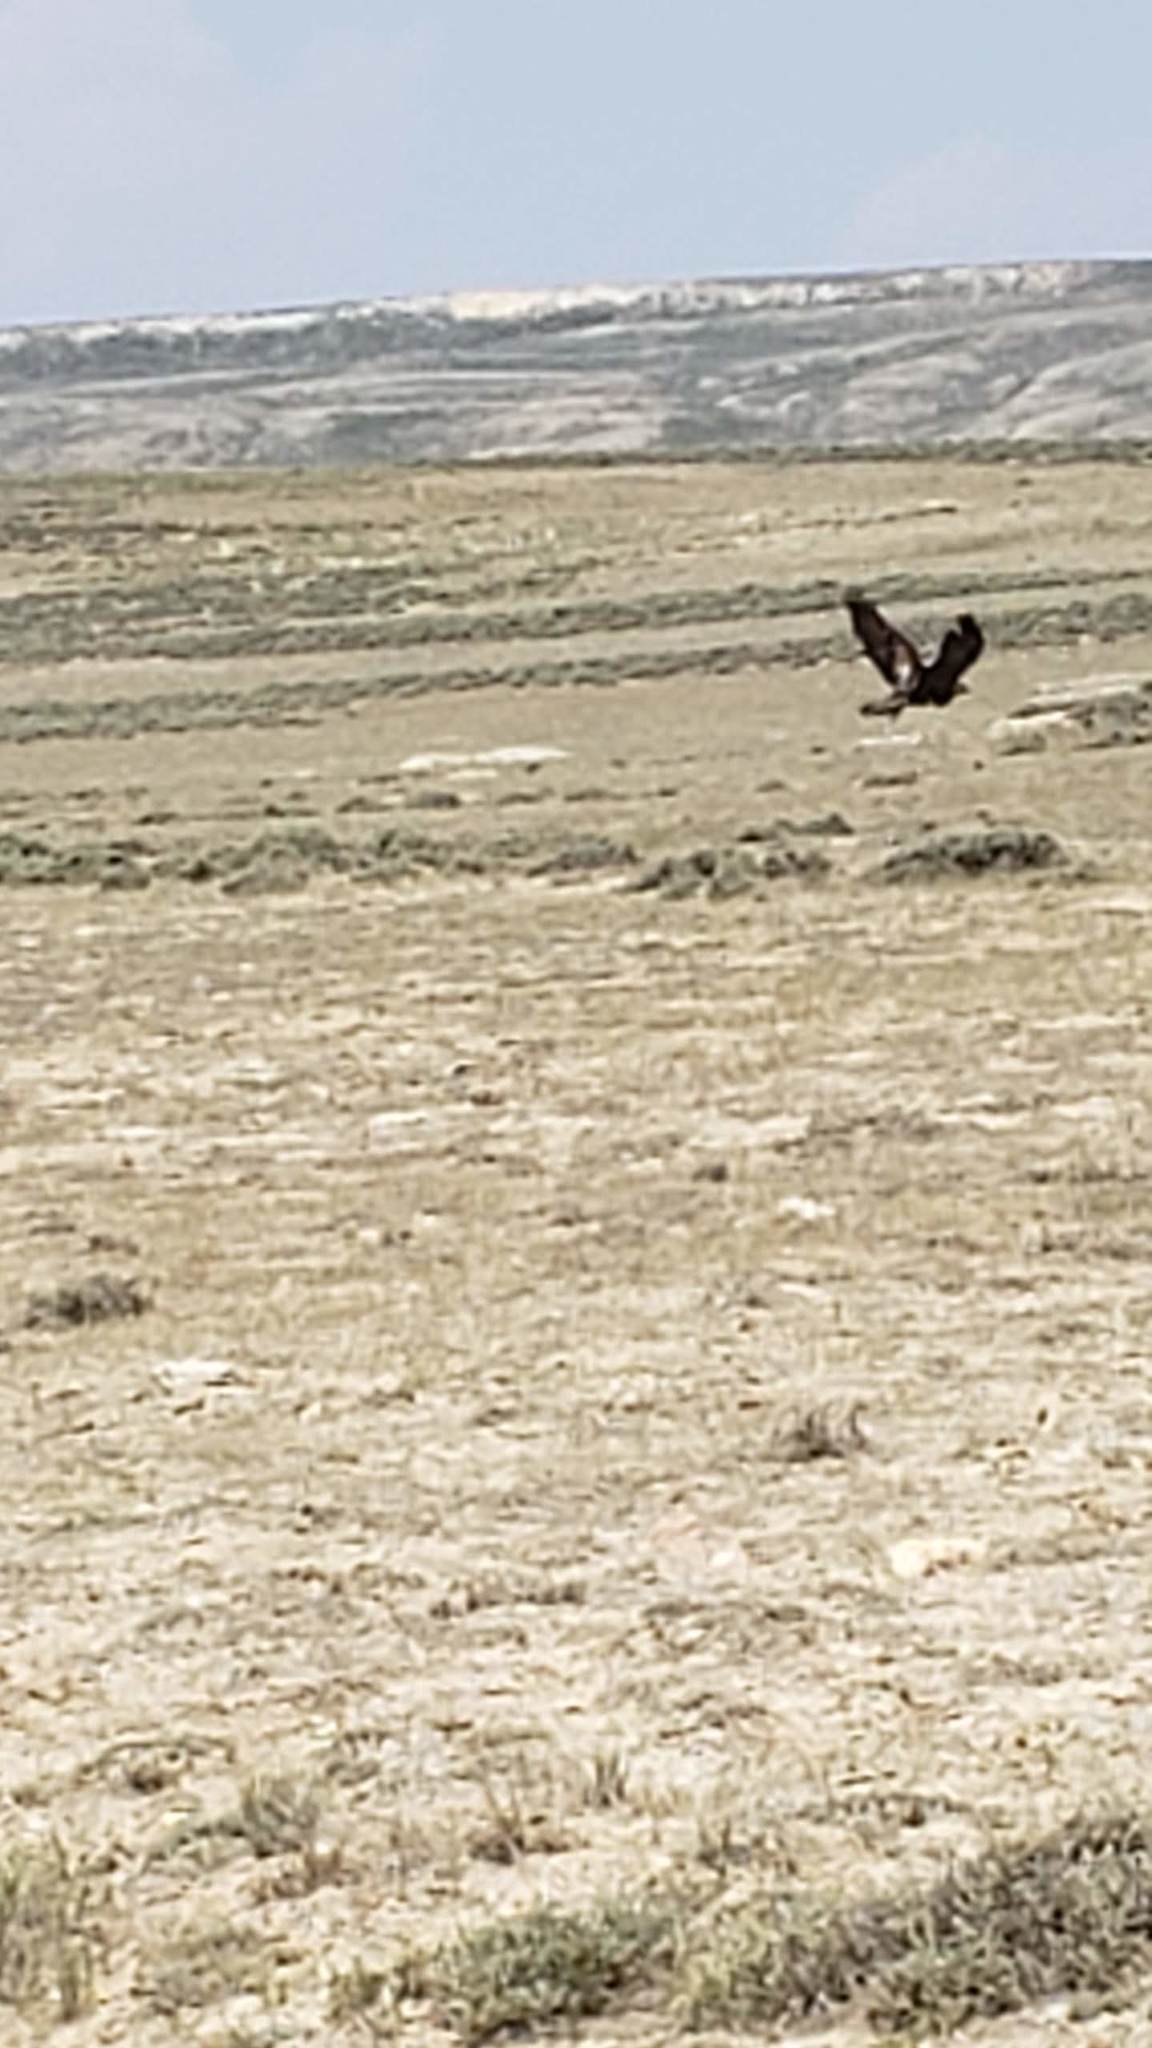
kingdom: Animalia
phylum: Chordata
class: Aves
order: Accipitriformes
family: Accipitridae
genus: Aquila
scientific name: Aquila chrysaetos
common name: Golden eagle
